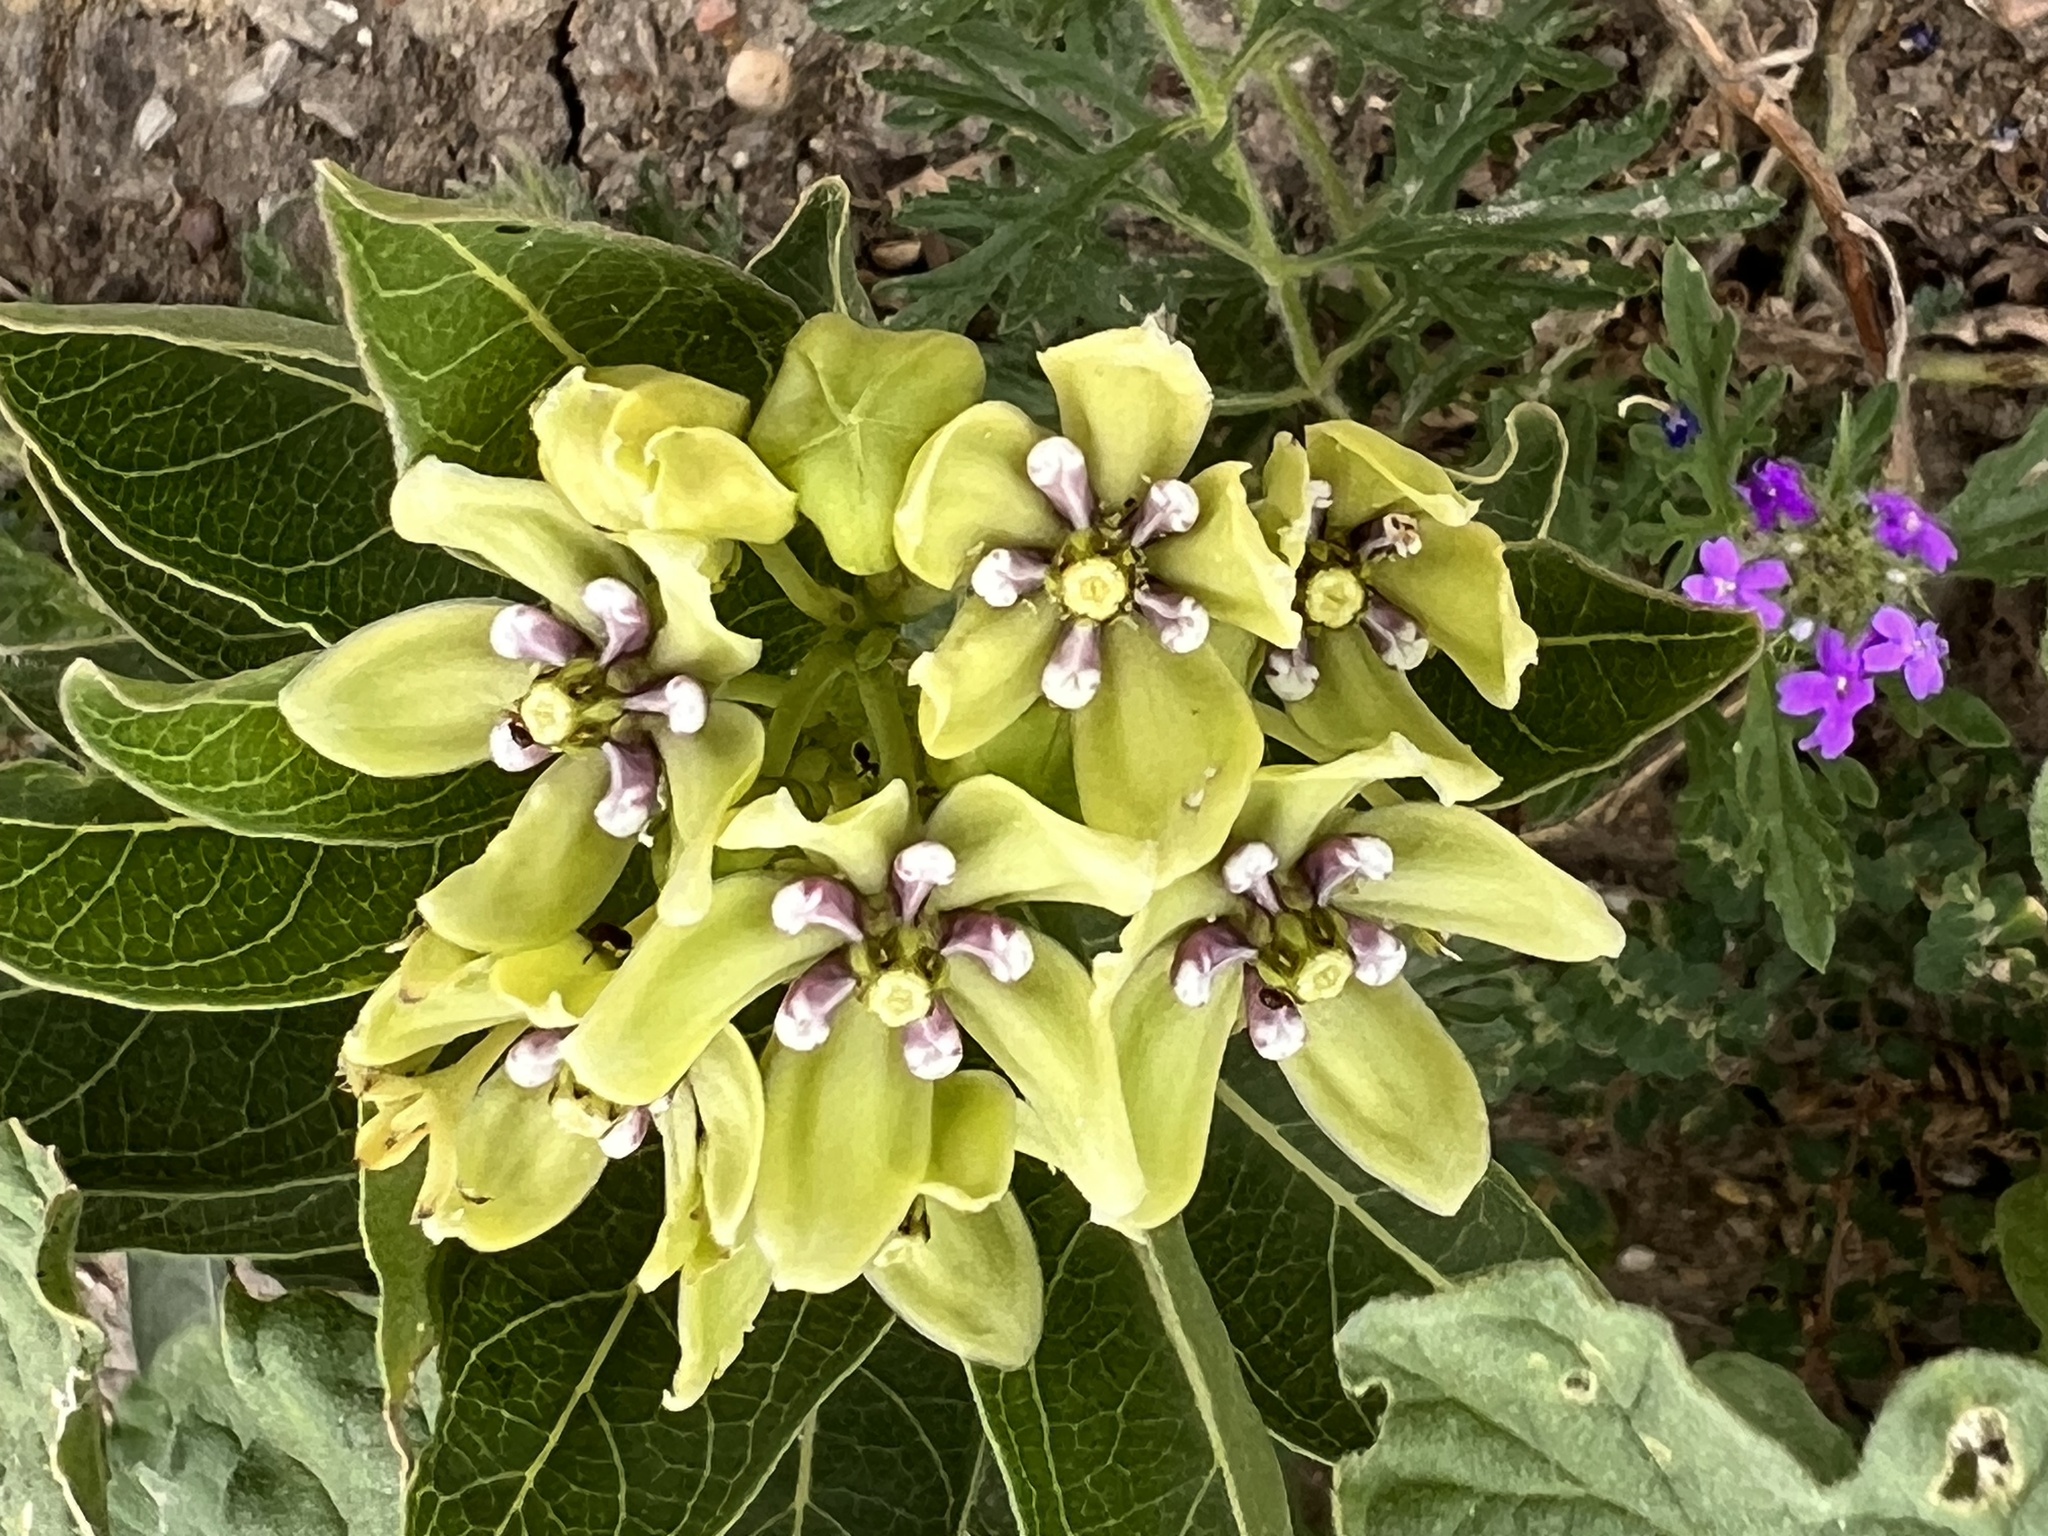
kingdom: Plantae
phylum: Tracheophyta
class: Magnoliopsida
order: Gentianales
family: Apocynaceae
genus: Asclepias
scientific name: Asclepias viridis
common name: Antelope-horns
